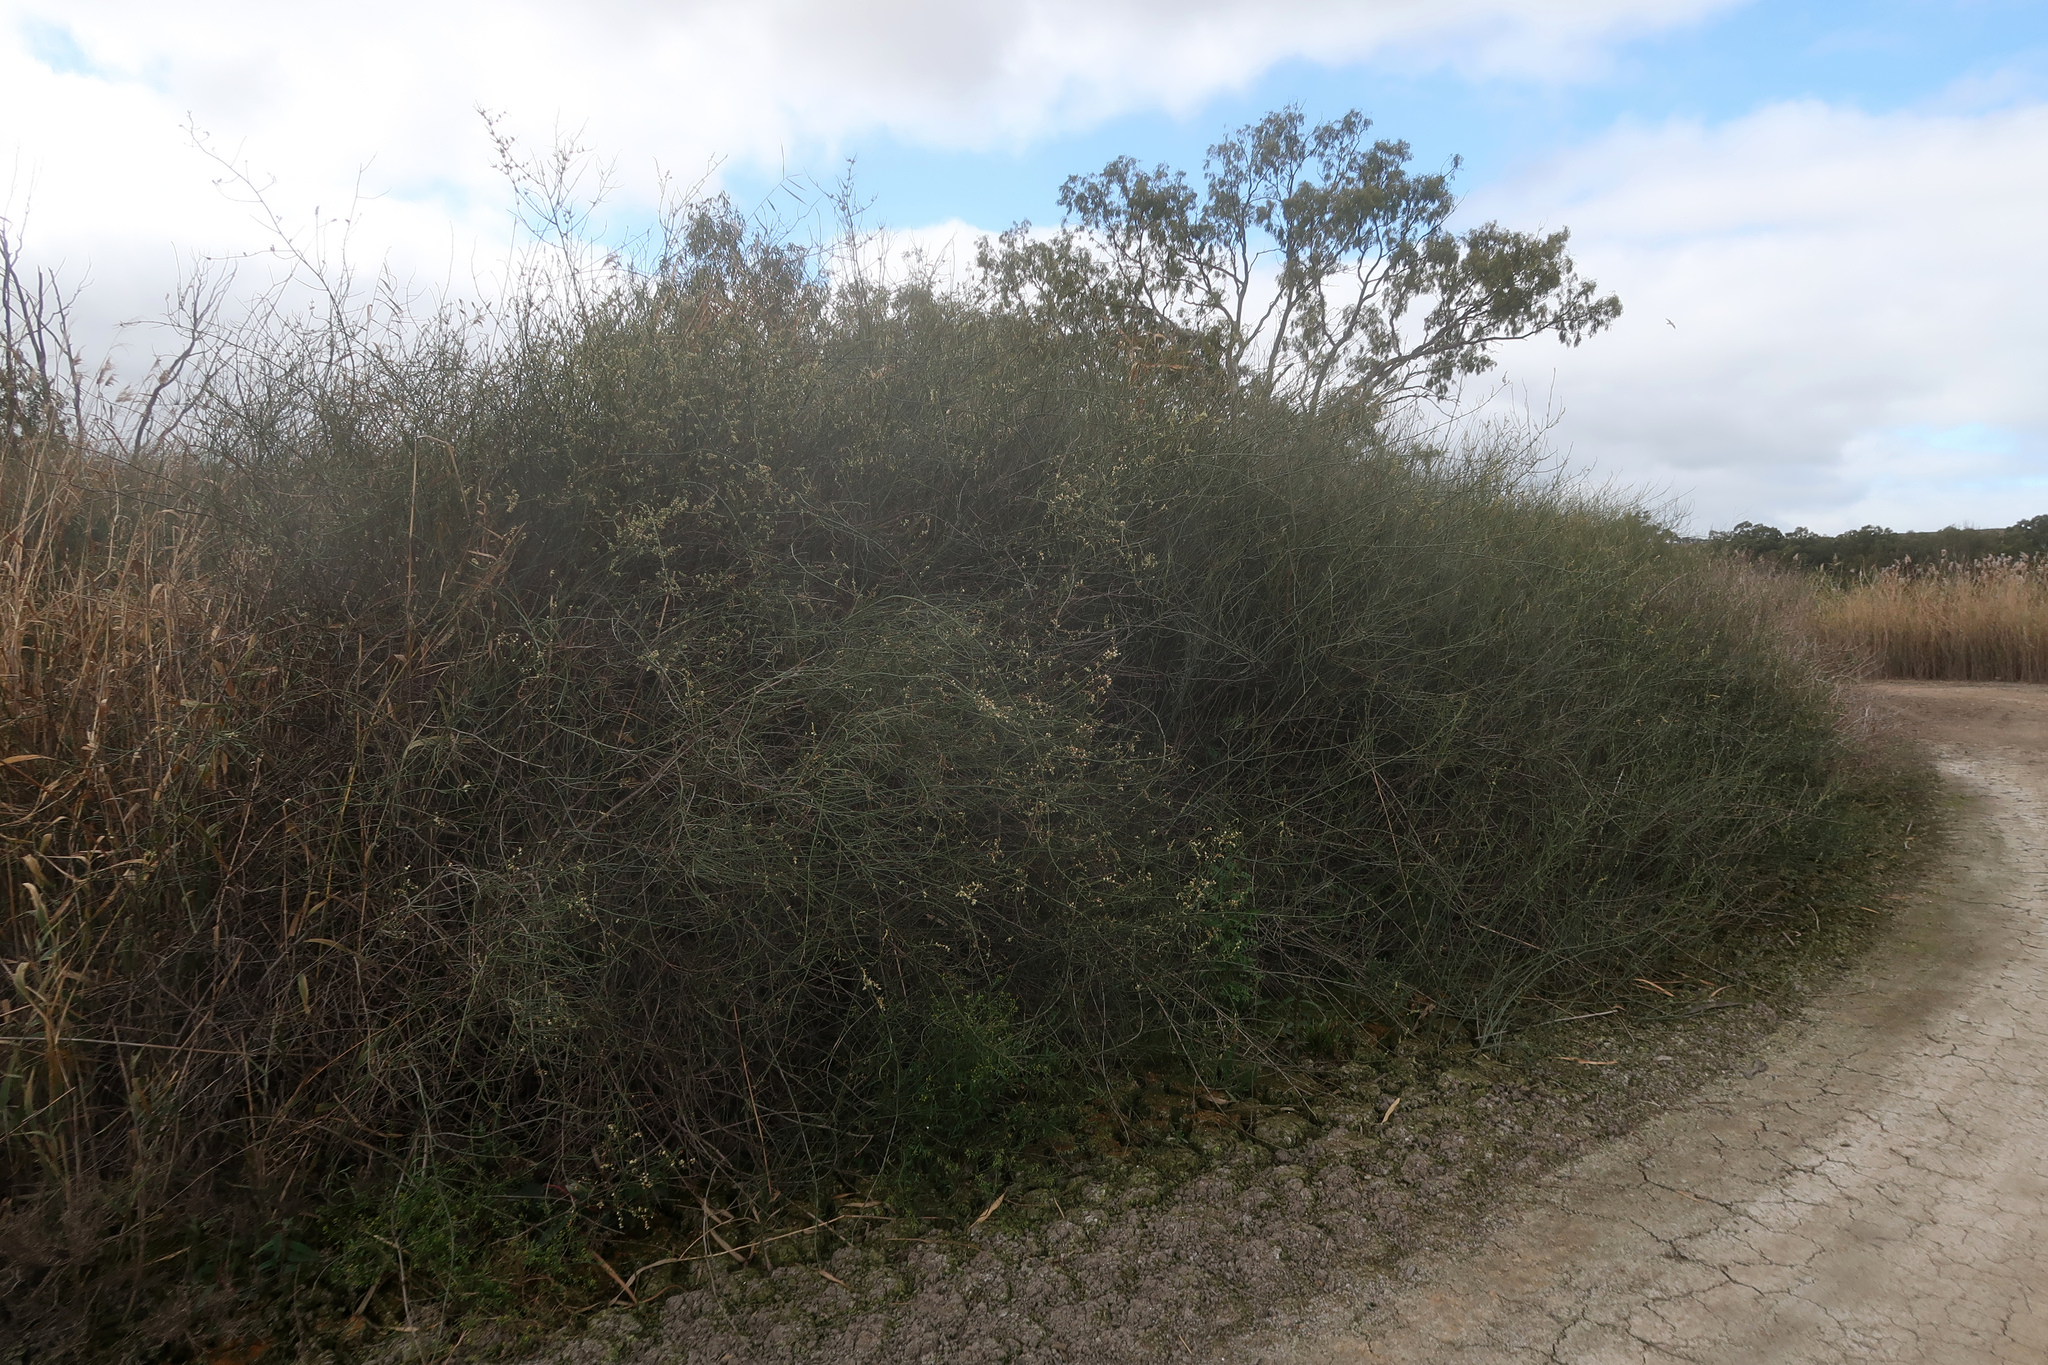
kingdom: Plantae
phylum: Tracheophyta
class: Magnoliopsida
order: Caryophyllales
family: Polygonaceae
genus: Duma
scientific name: Duma florulenta
